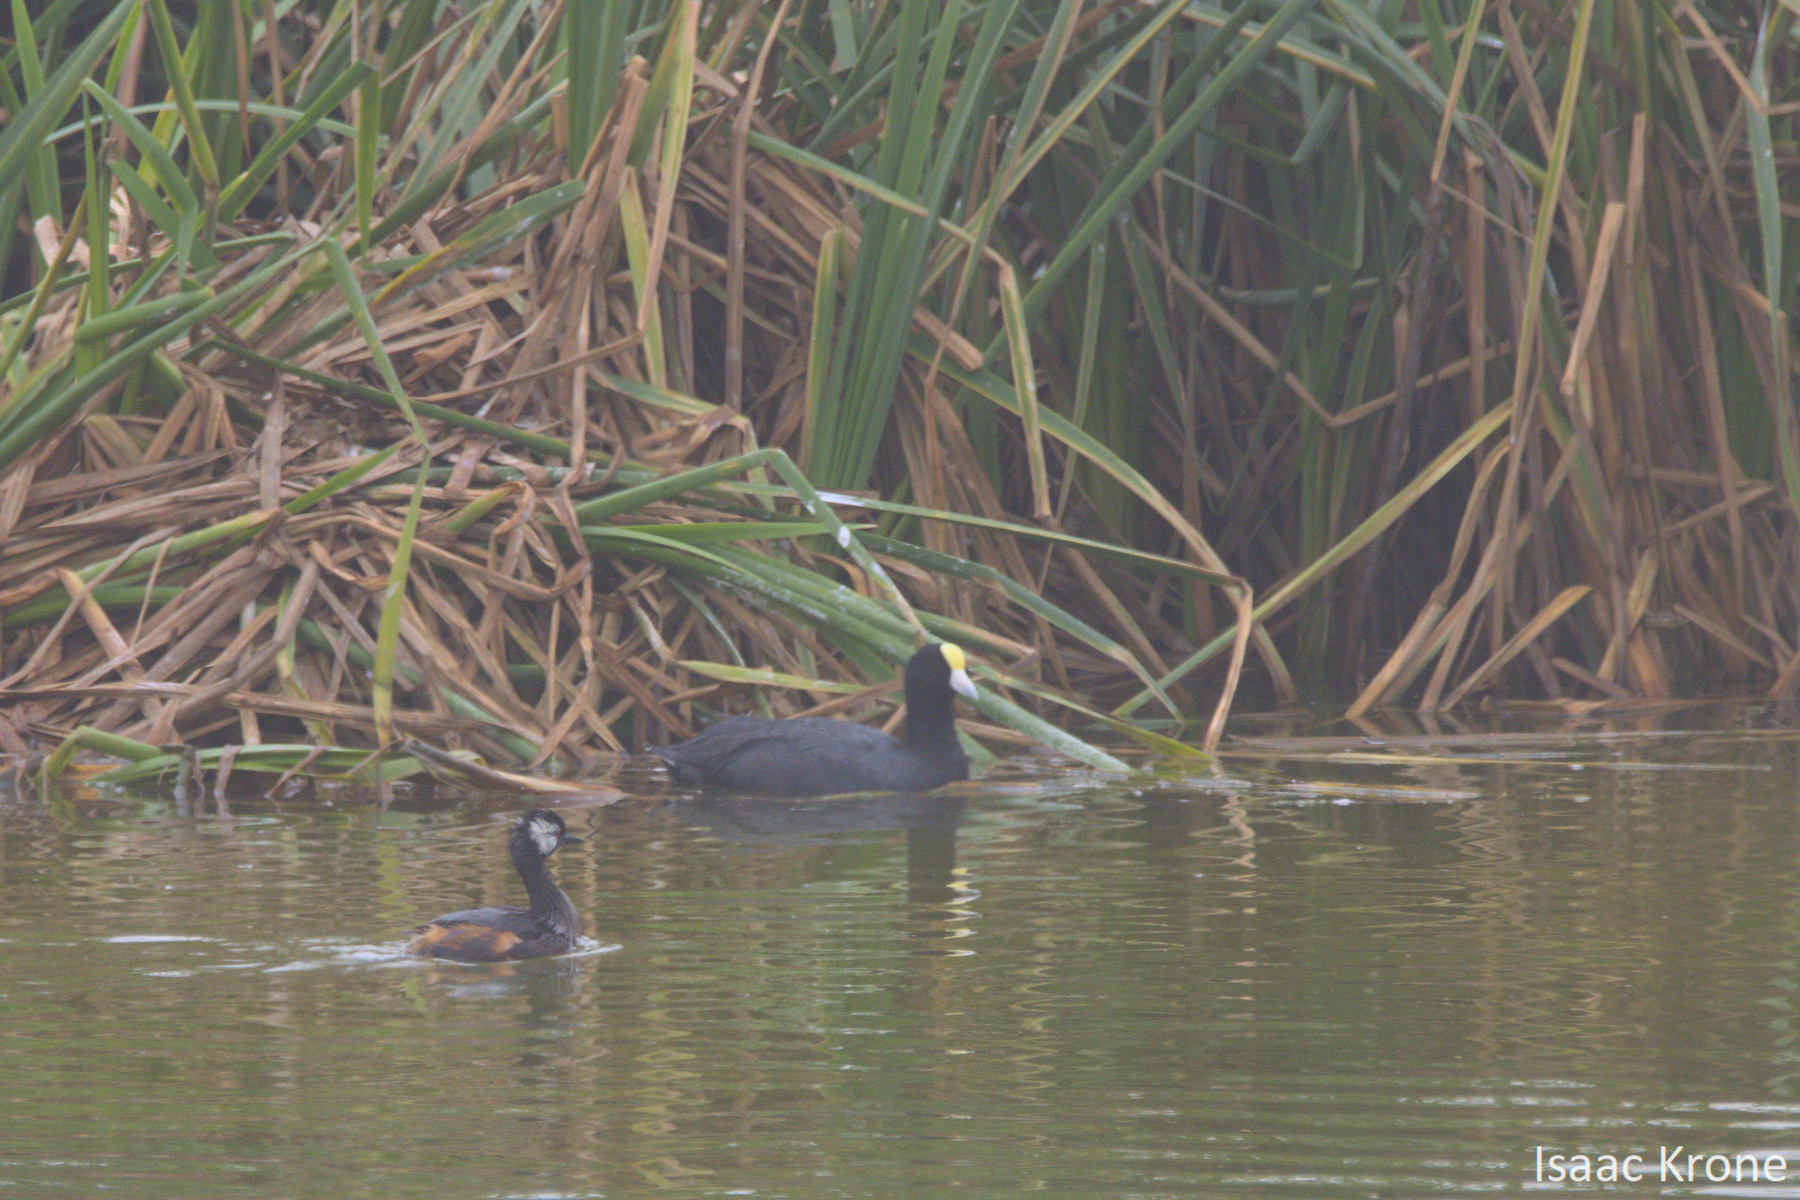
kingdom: Animalia
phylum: Chordata
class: Aves
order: Gruiformes
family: Rallidae
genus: Fulica
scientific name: Fulica ardesiaca
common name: Andean coot
